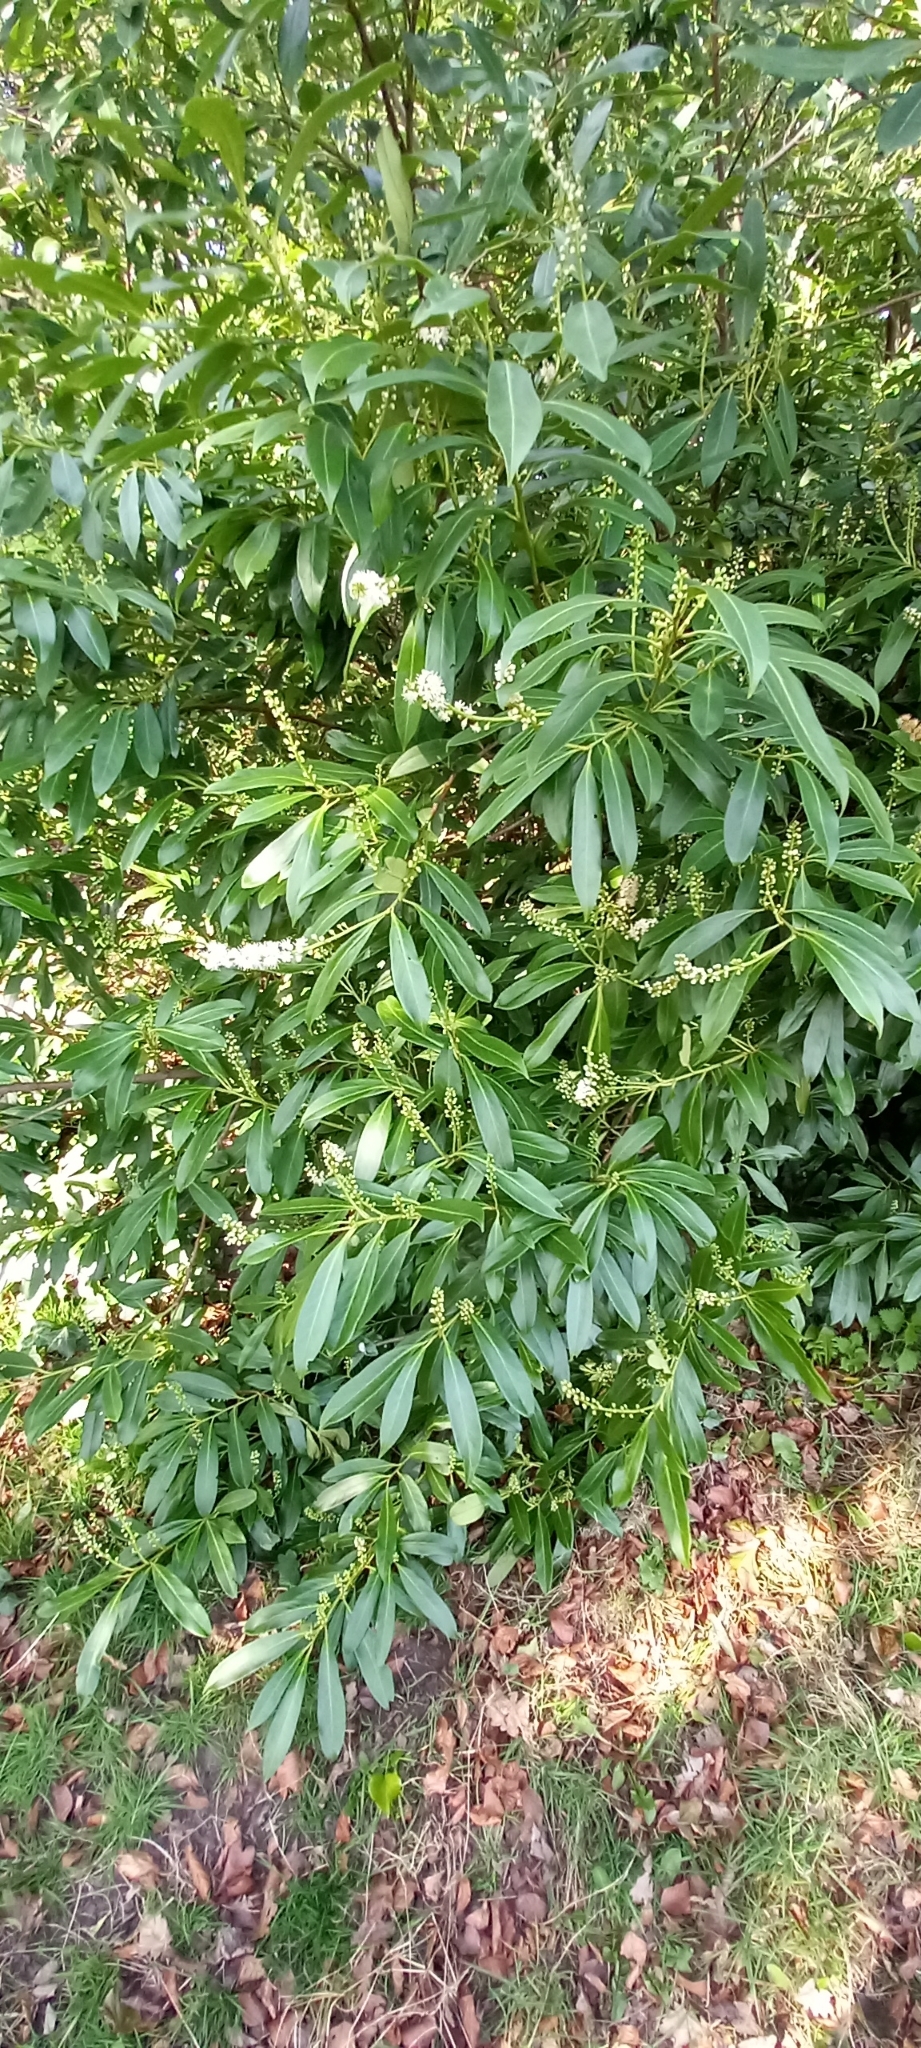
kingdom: Plantae
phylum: Tracheophyta
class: Magnoliopsida
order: Rosales
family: Rosaceae
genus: Prunus
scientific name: Prunus laurocerasus
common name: Cherry laurel
